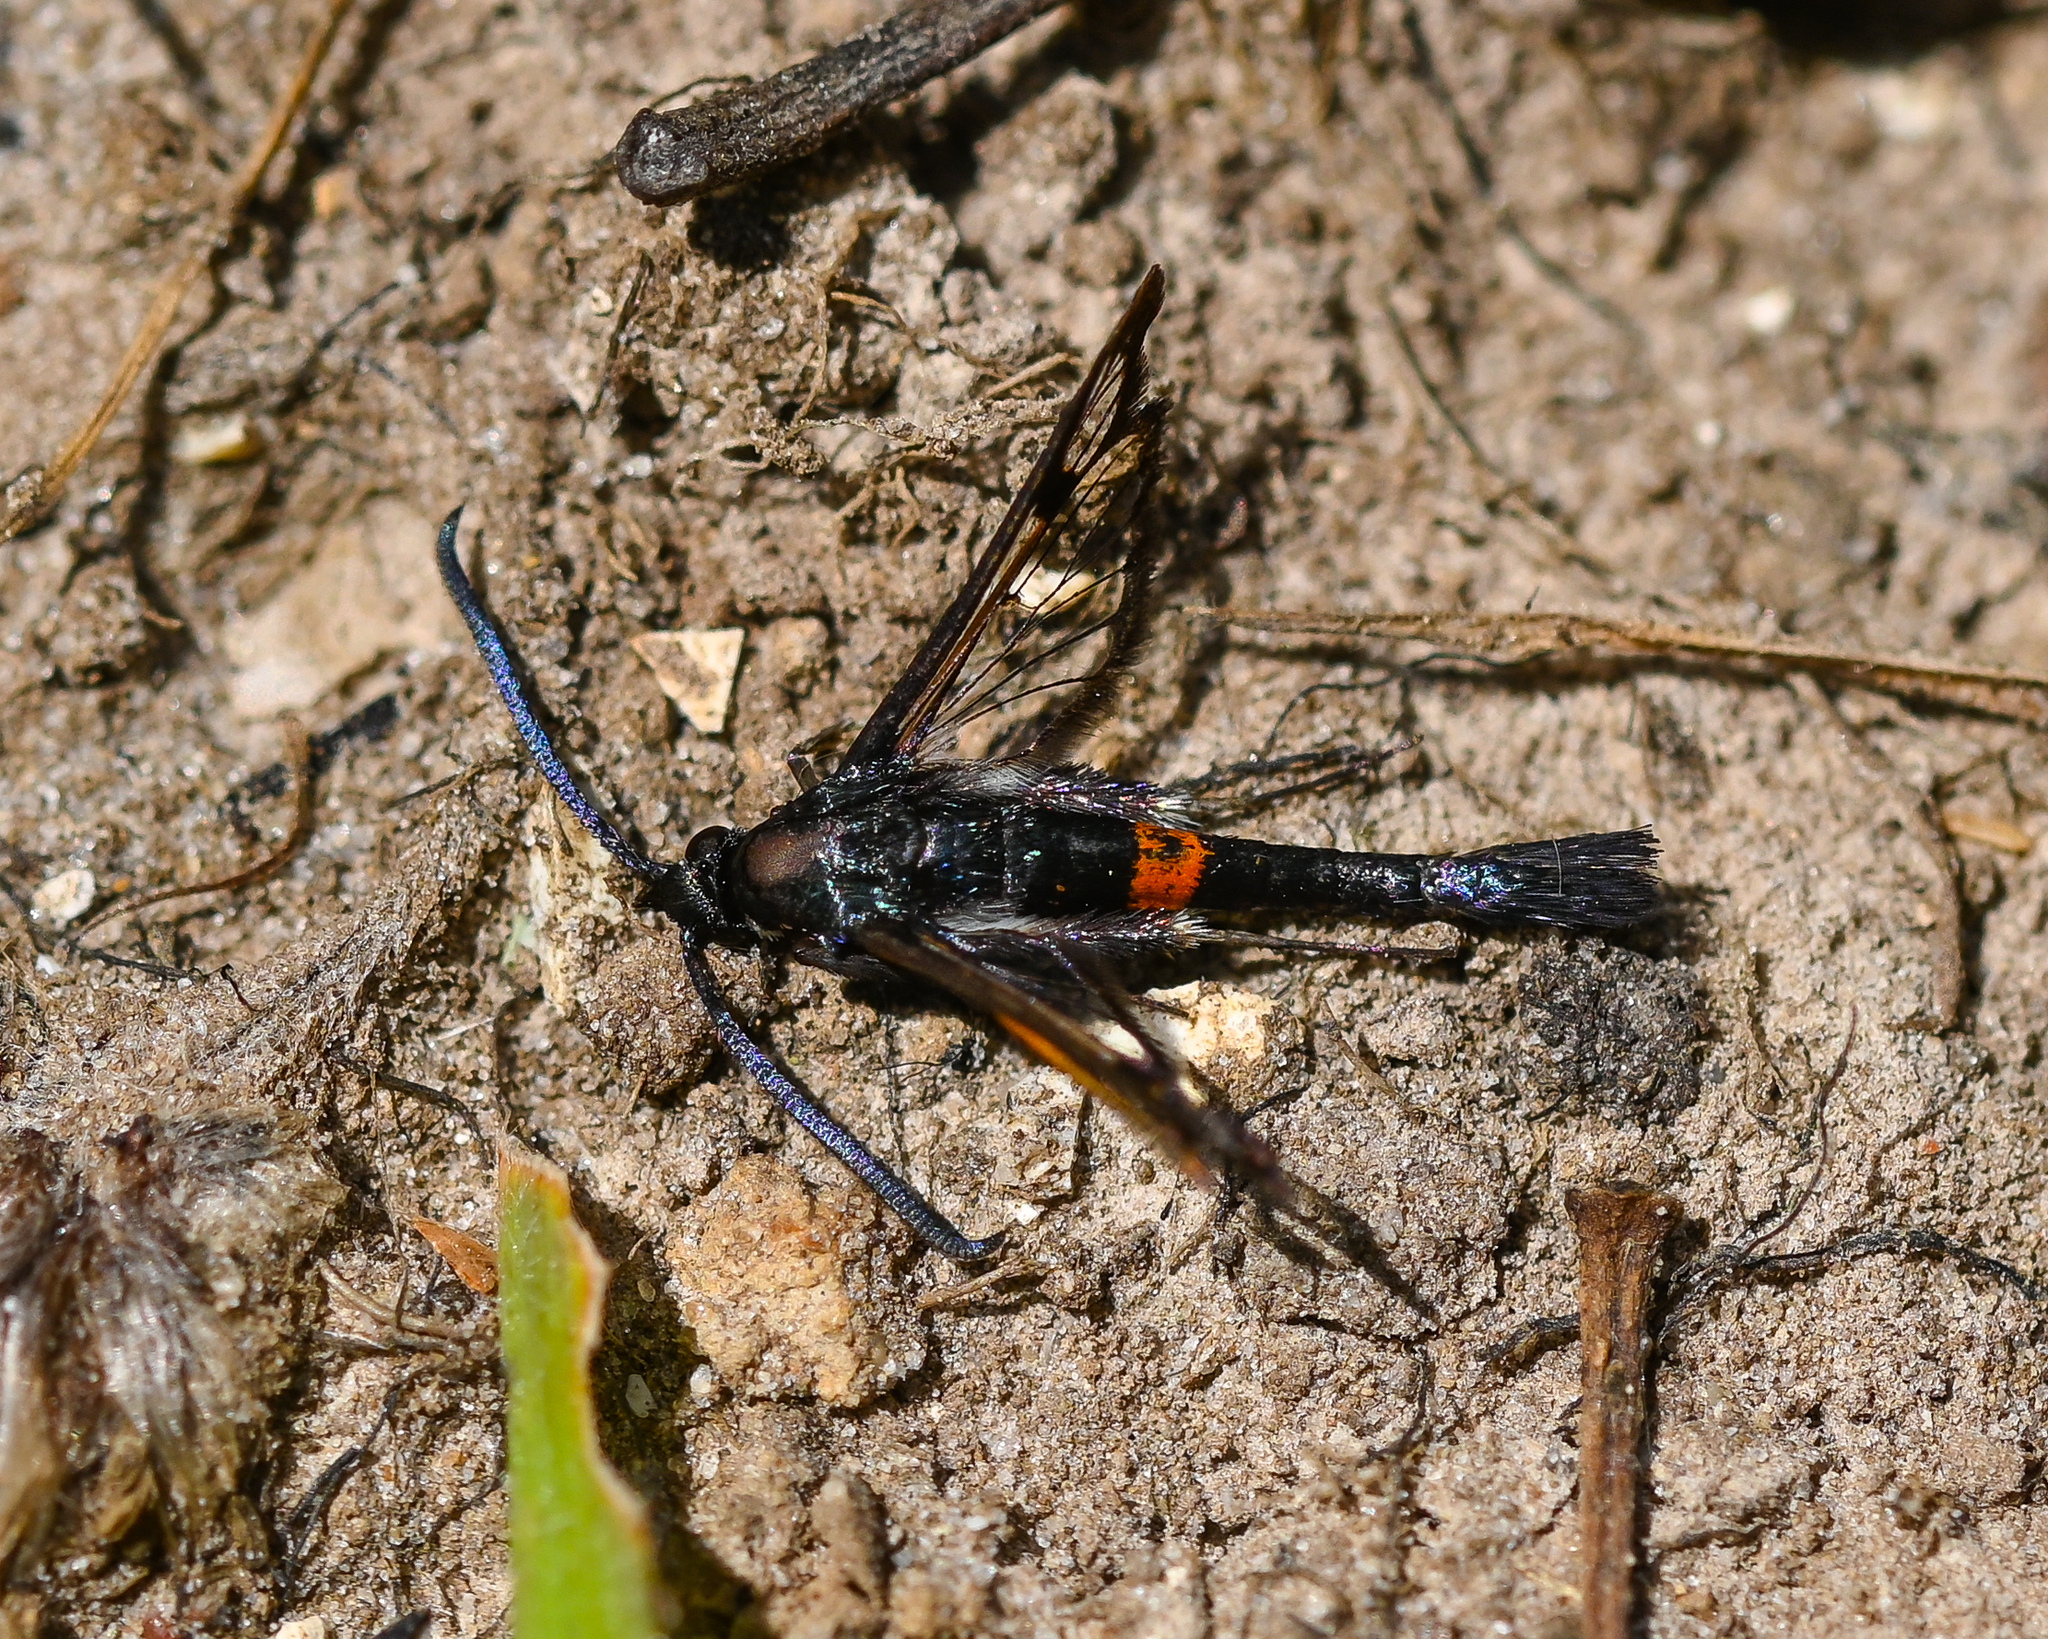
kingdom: Animalia
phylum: Arthropoda
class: Insecta
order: Lepidoptera
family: Sesiidae
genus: Synanthedon
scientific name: Synanthedon myopaeformis
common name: Red-belted clearwing
